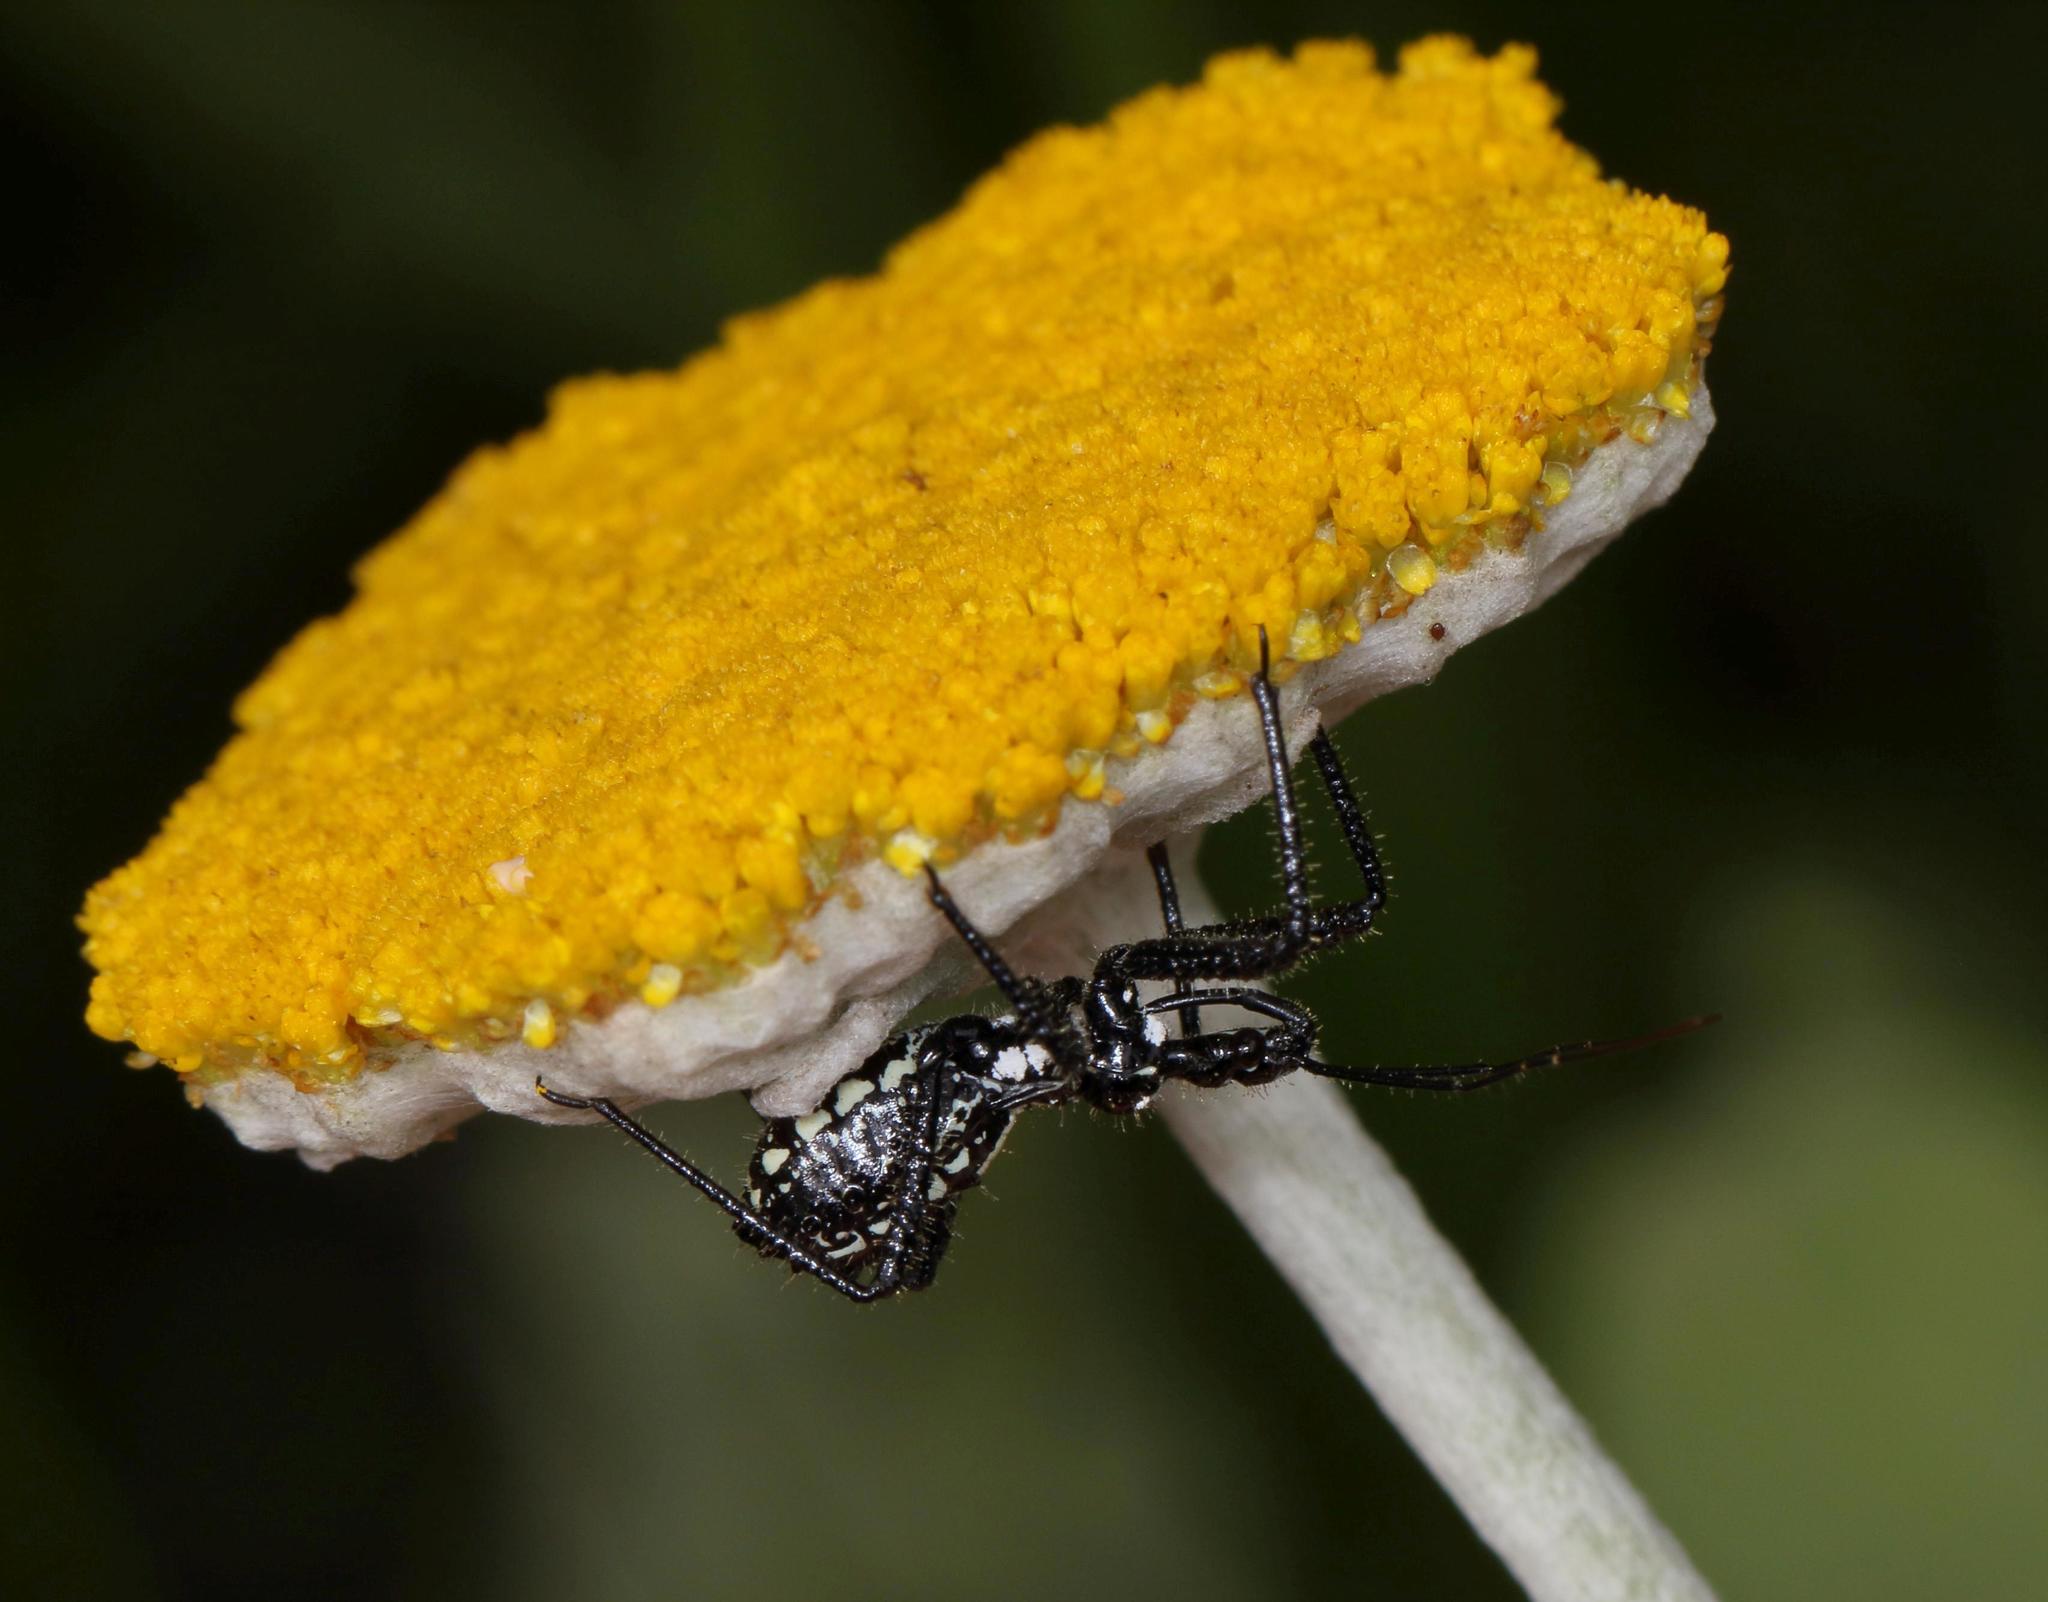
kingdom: Plantae
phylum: Tracheophyta
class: Magnoliopsida
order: Asterales
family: Asteraceae
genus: Helichrysum
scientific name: Helichrysum umbraculigerum
